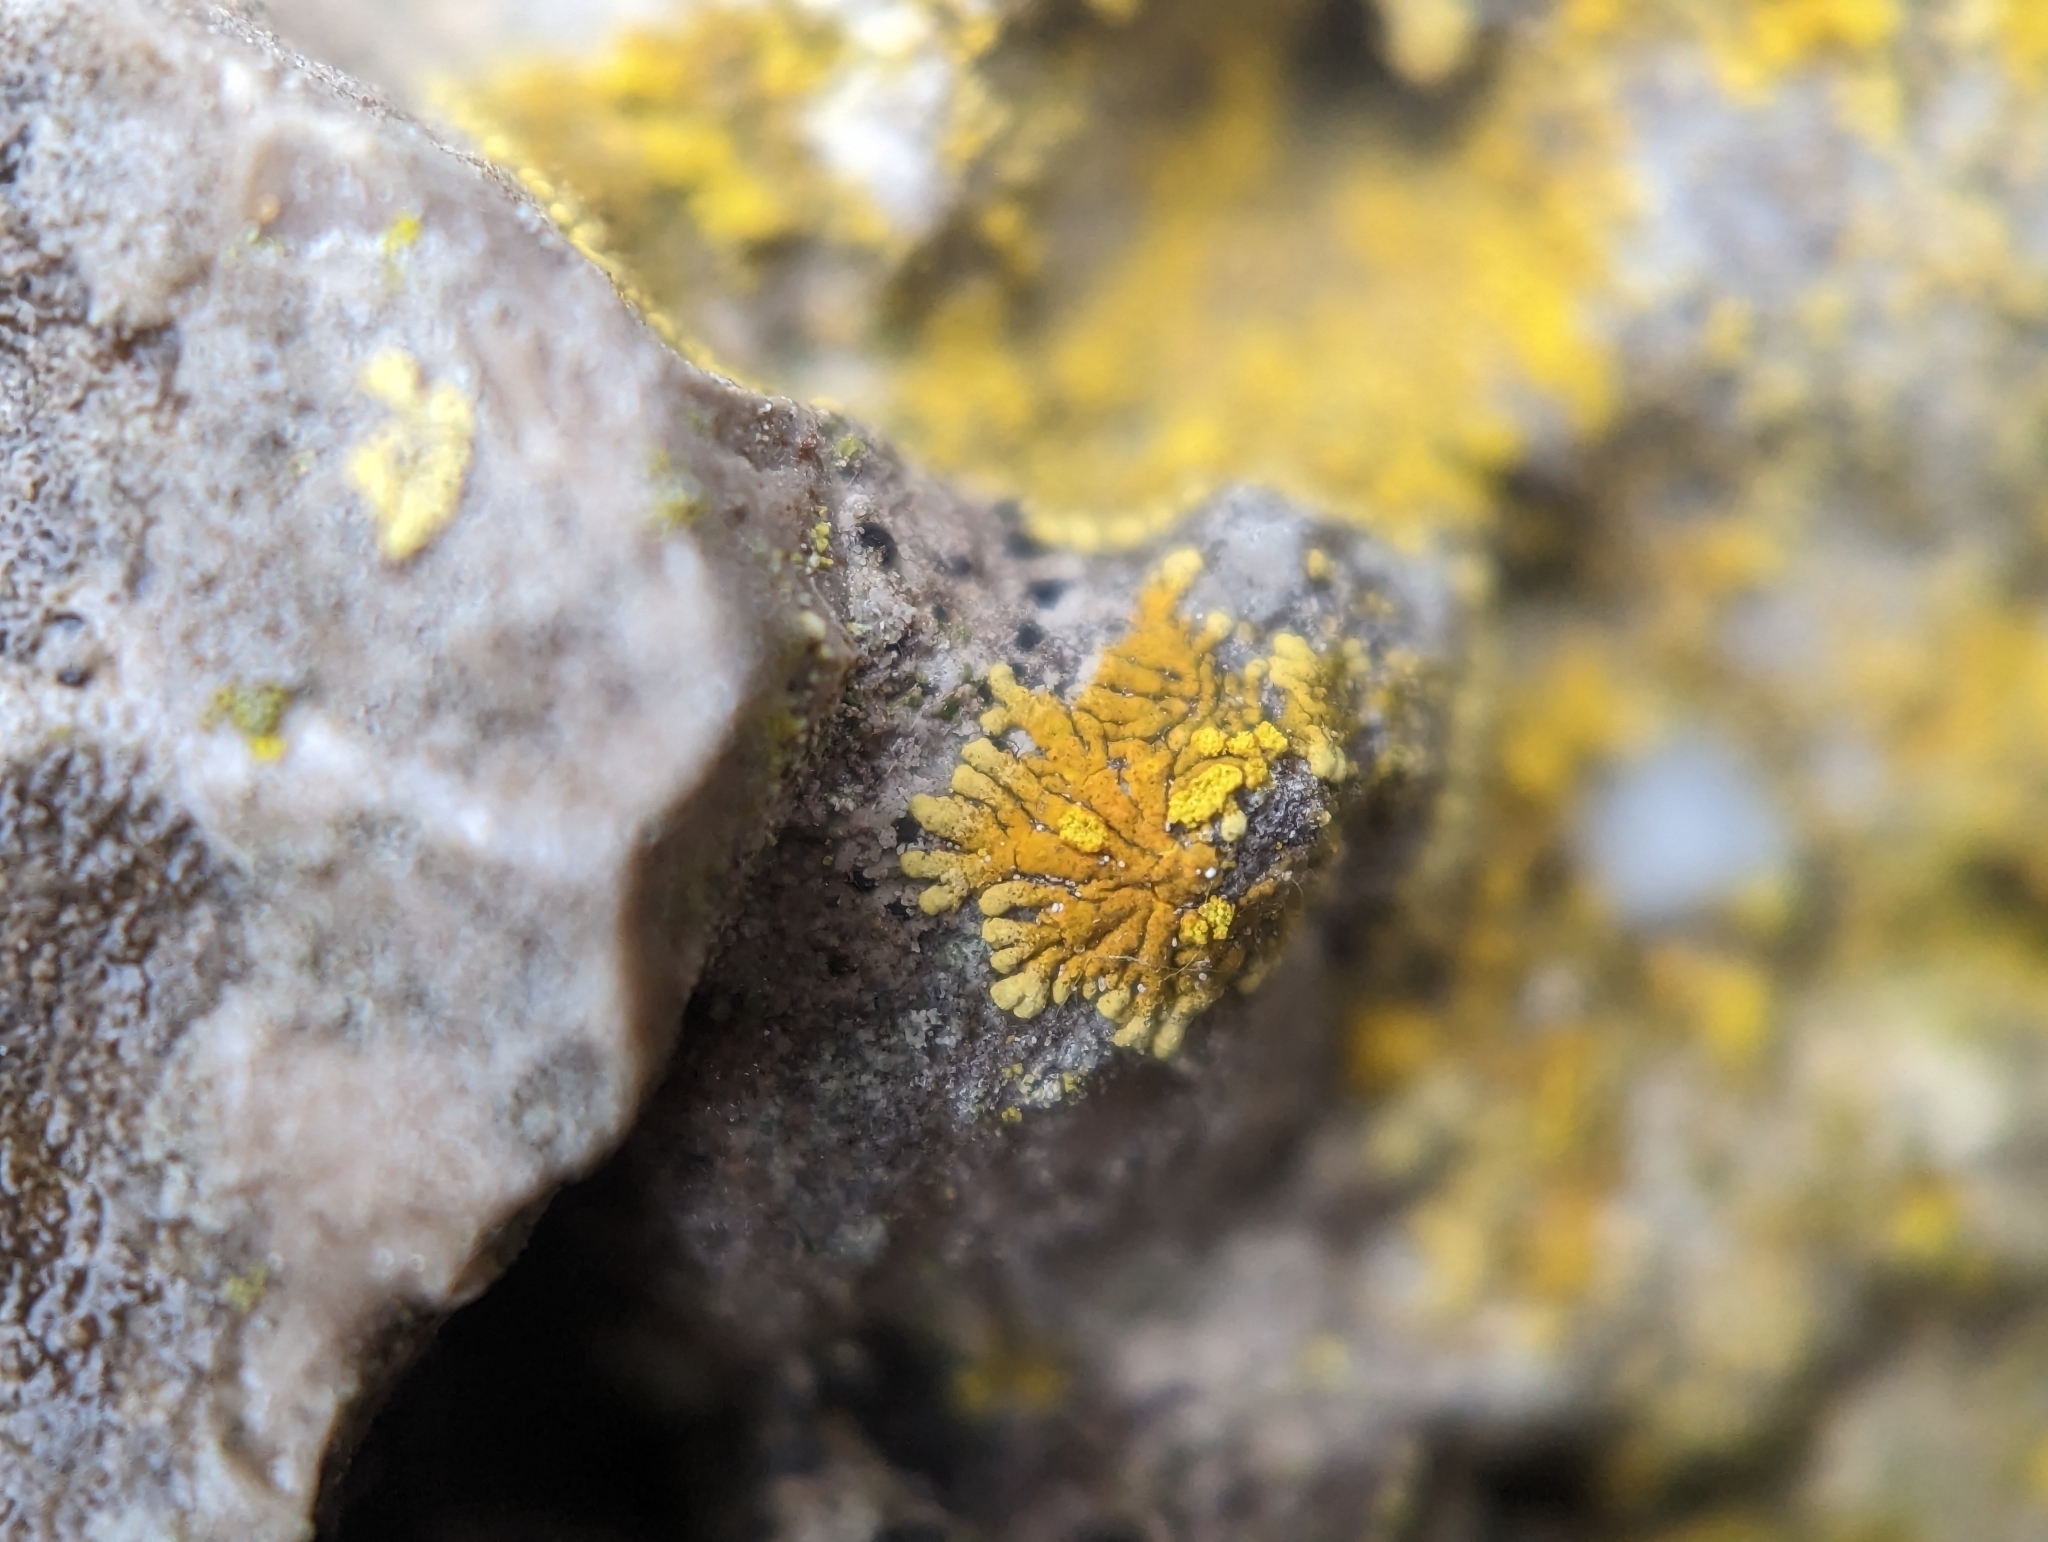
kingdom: Fungi
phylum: Ascomycota
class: Lecanoromycetes
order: Teloschistales
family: Teloschistaceae
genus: Leproplaca
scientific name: Leproplaca cirrochroa
